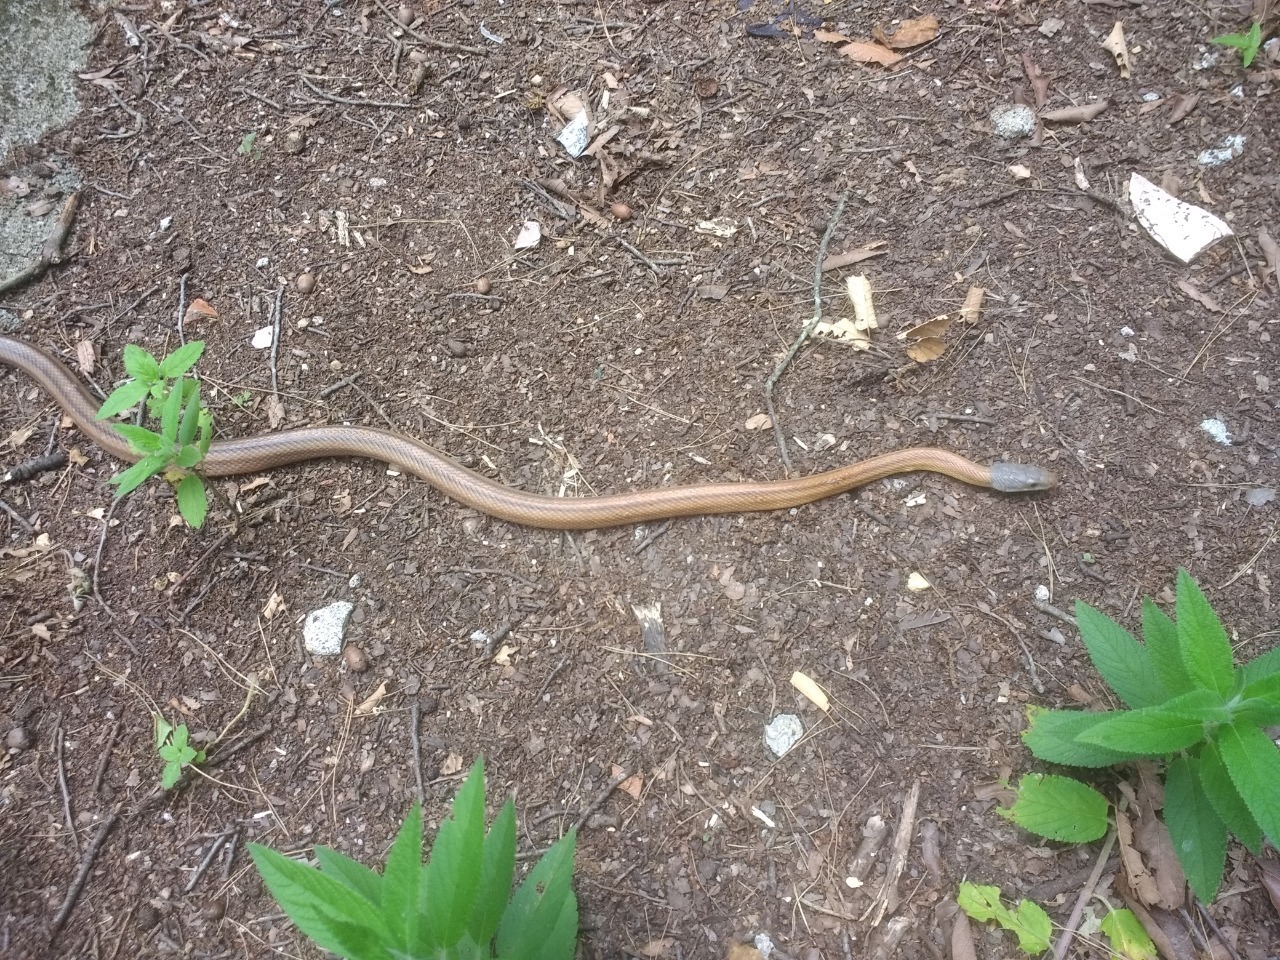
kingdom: Animalia
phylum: Chordata
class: Squamata
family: Colubridae
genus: Pantherophis
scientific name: Pantherophis bairdi
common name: Baird's rat snake
